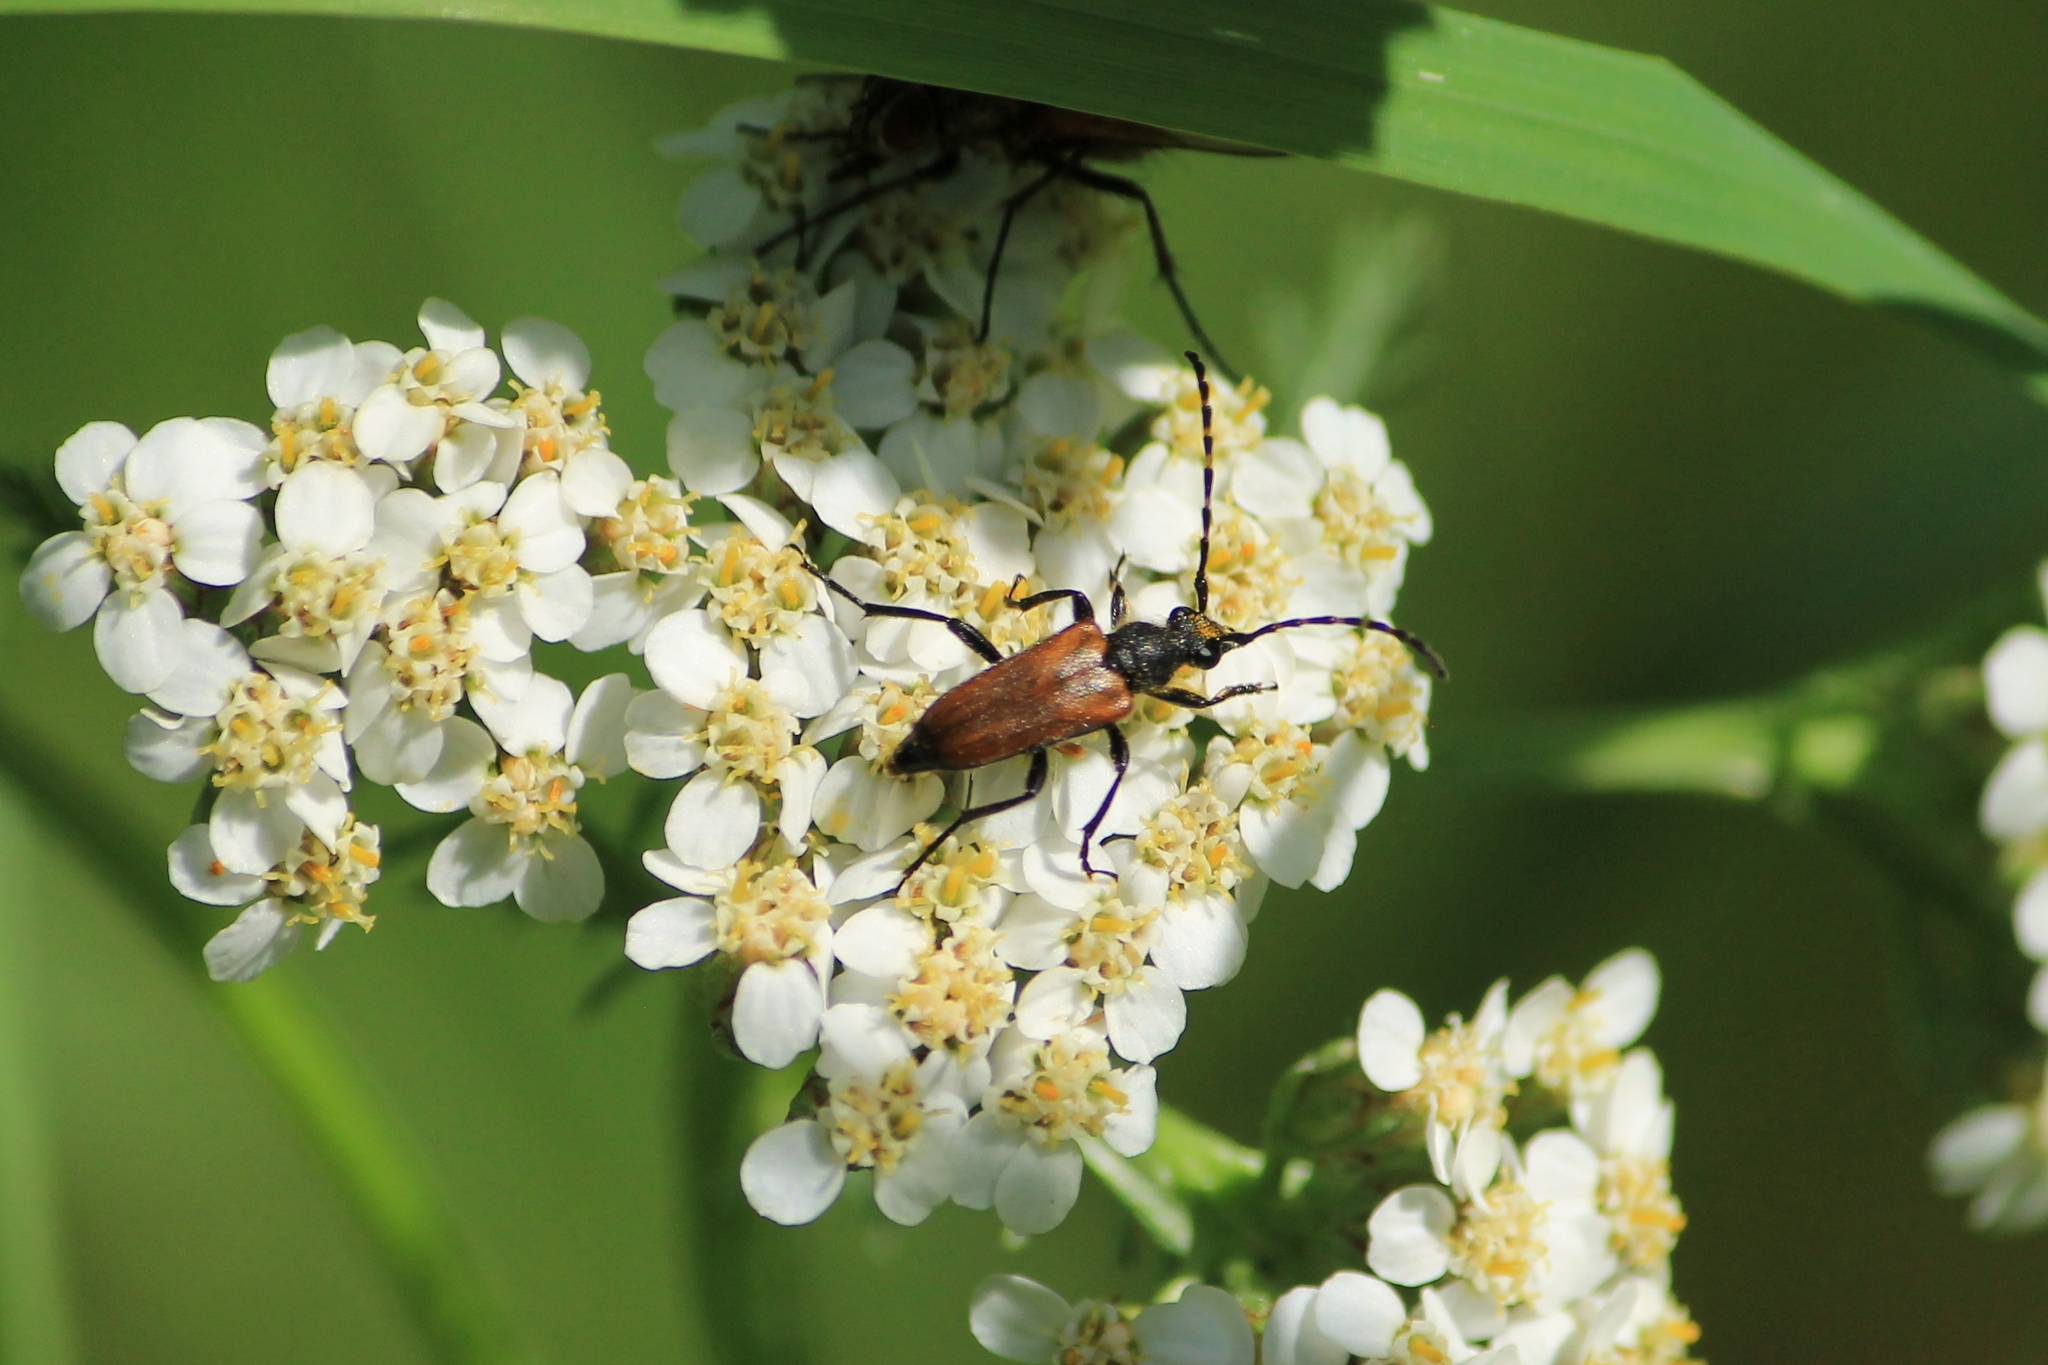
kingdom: Animalia
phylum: Arthropoda
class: Insecta
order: Coleoptera
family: Cerambycidae
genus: Paracorymbia
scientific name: Paracorymbia maculicornis
